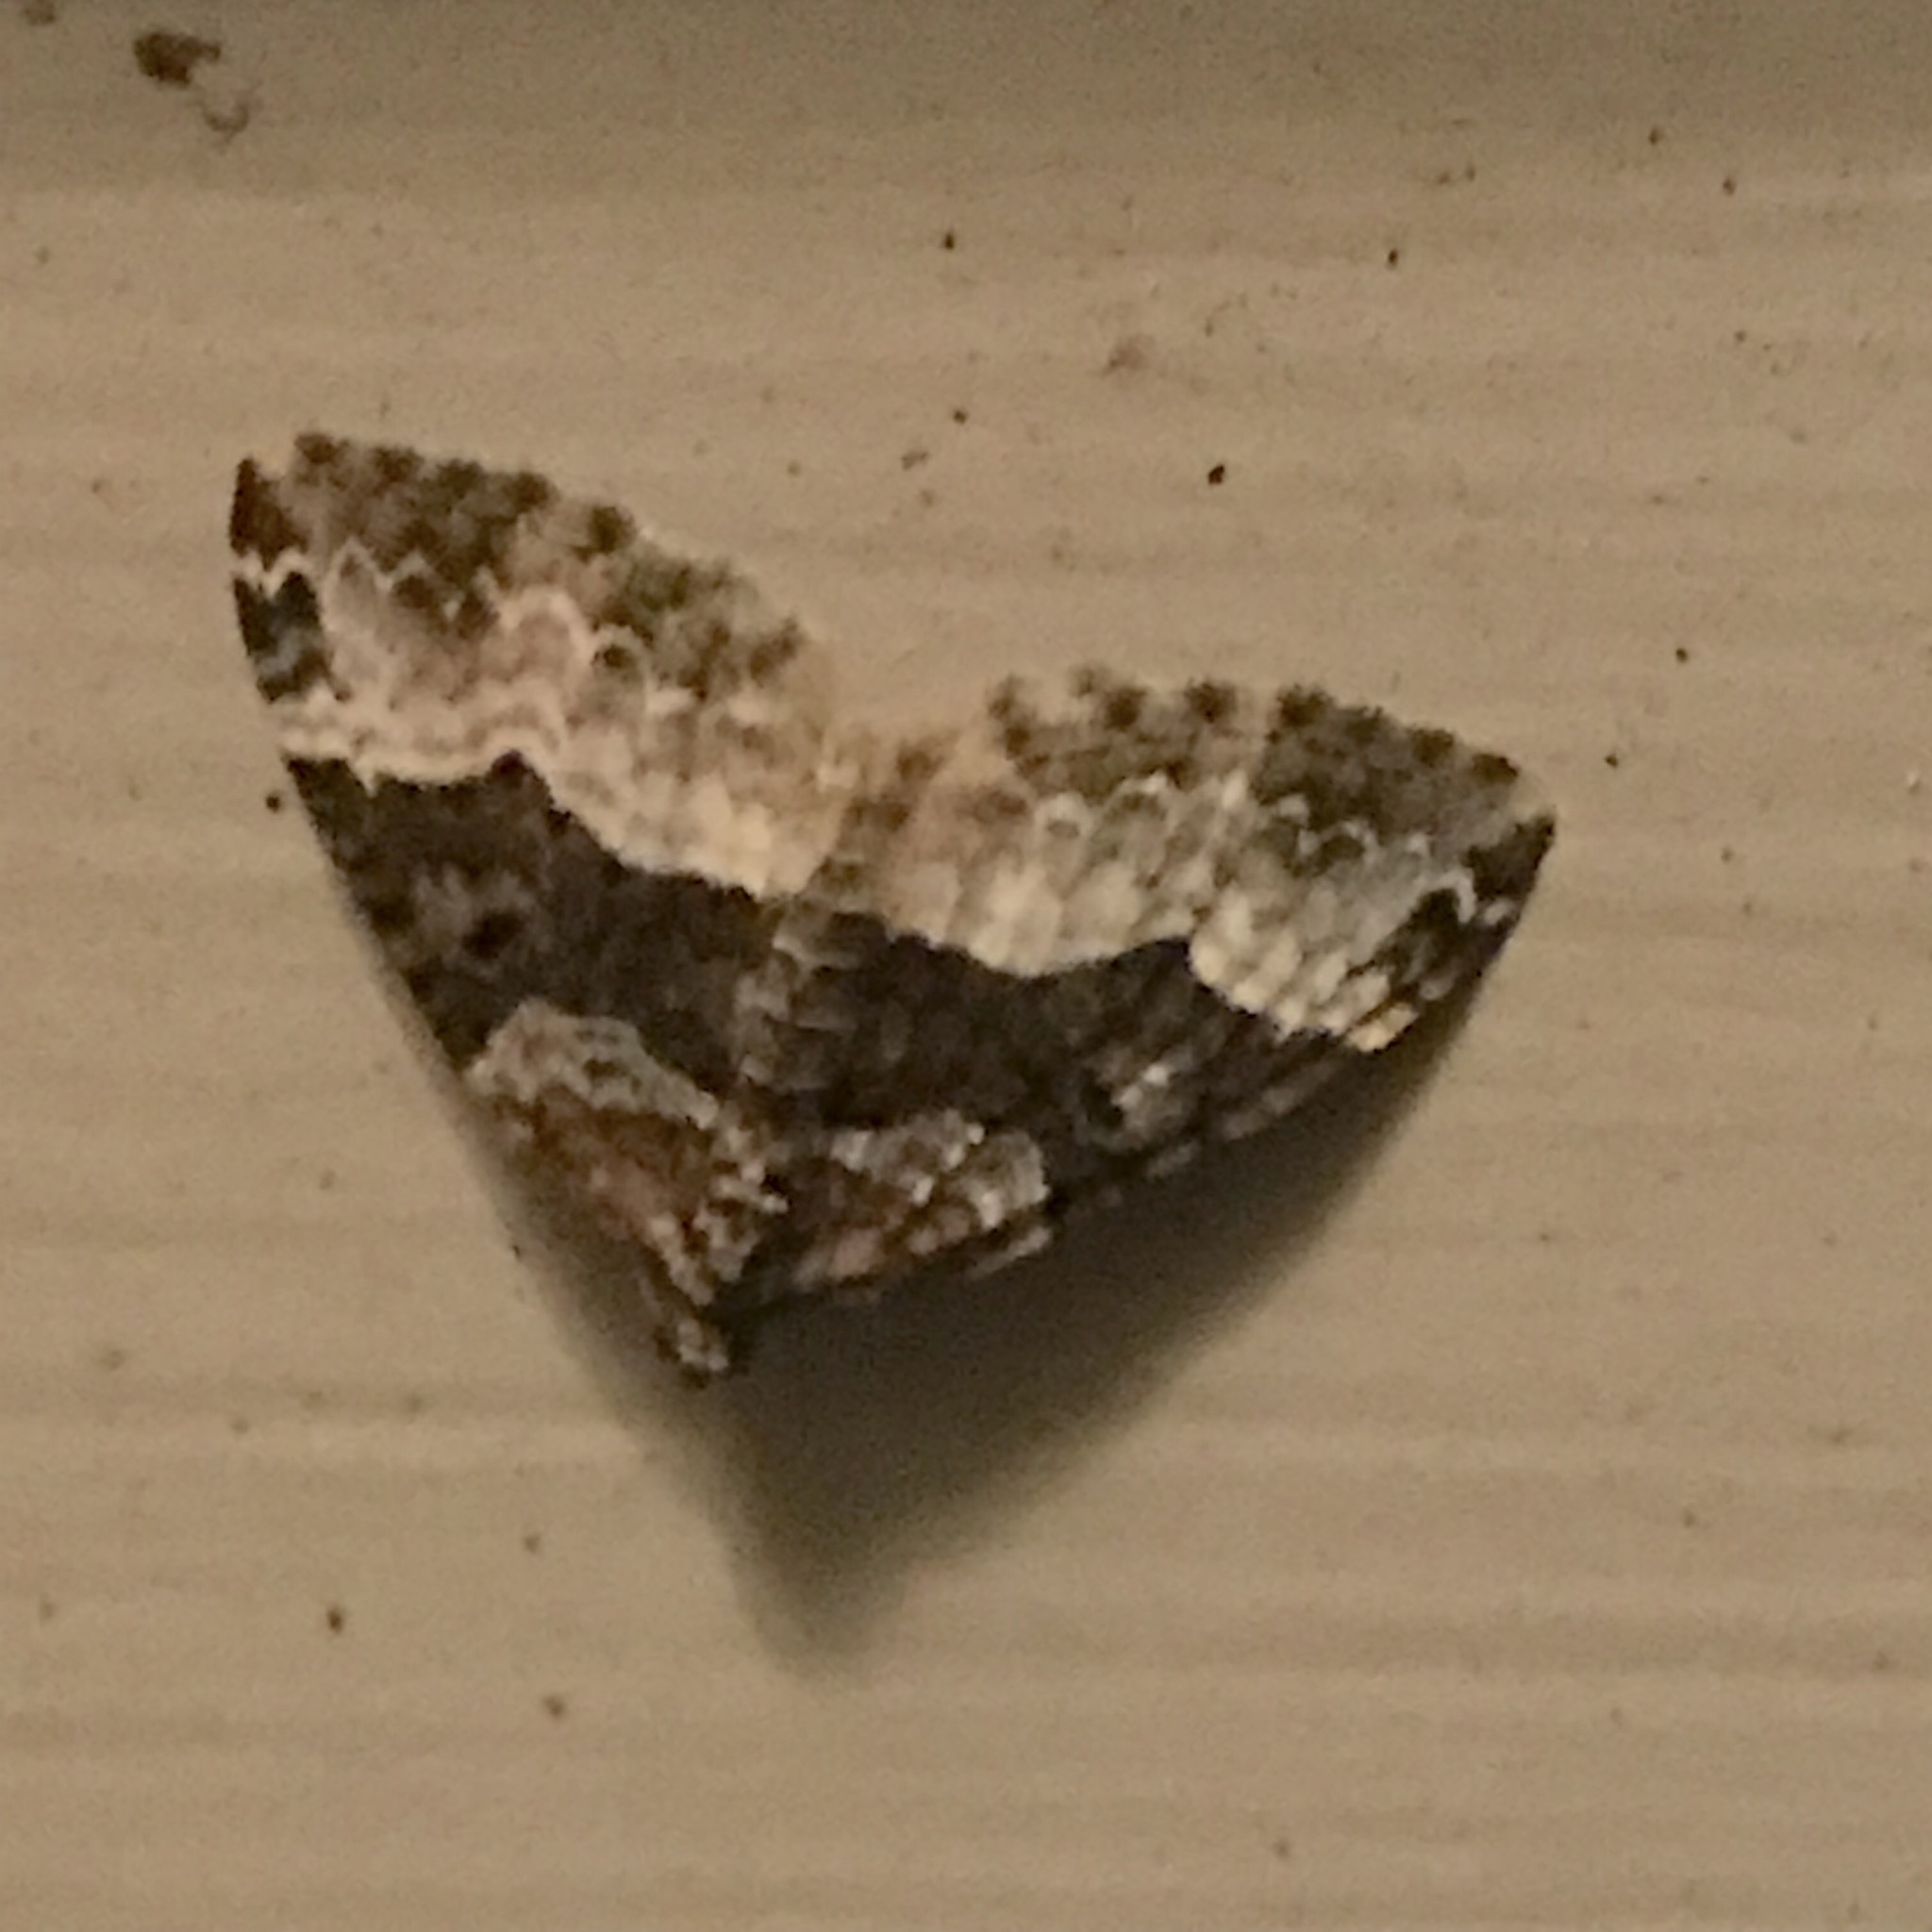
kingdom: Animalia
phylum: Arthropoda
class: Insecta
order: Lepidoptera
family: Geometridae
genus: Euphyia
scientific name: Euphyia intermediata
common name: Sharp-angled carpet
